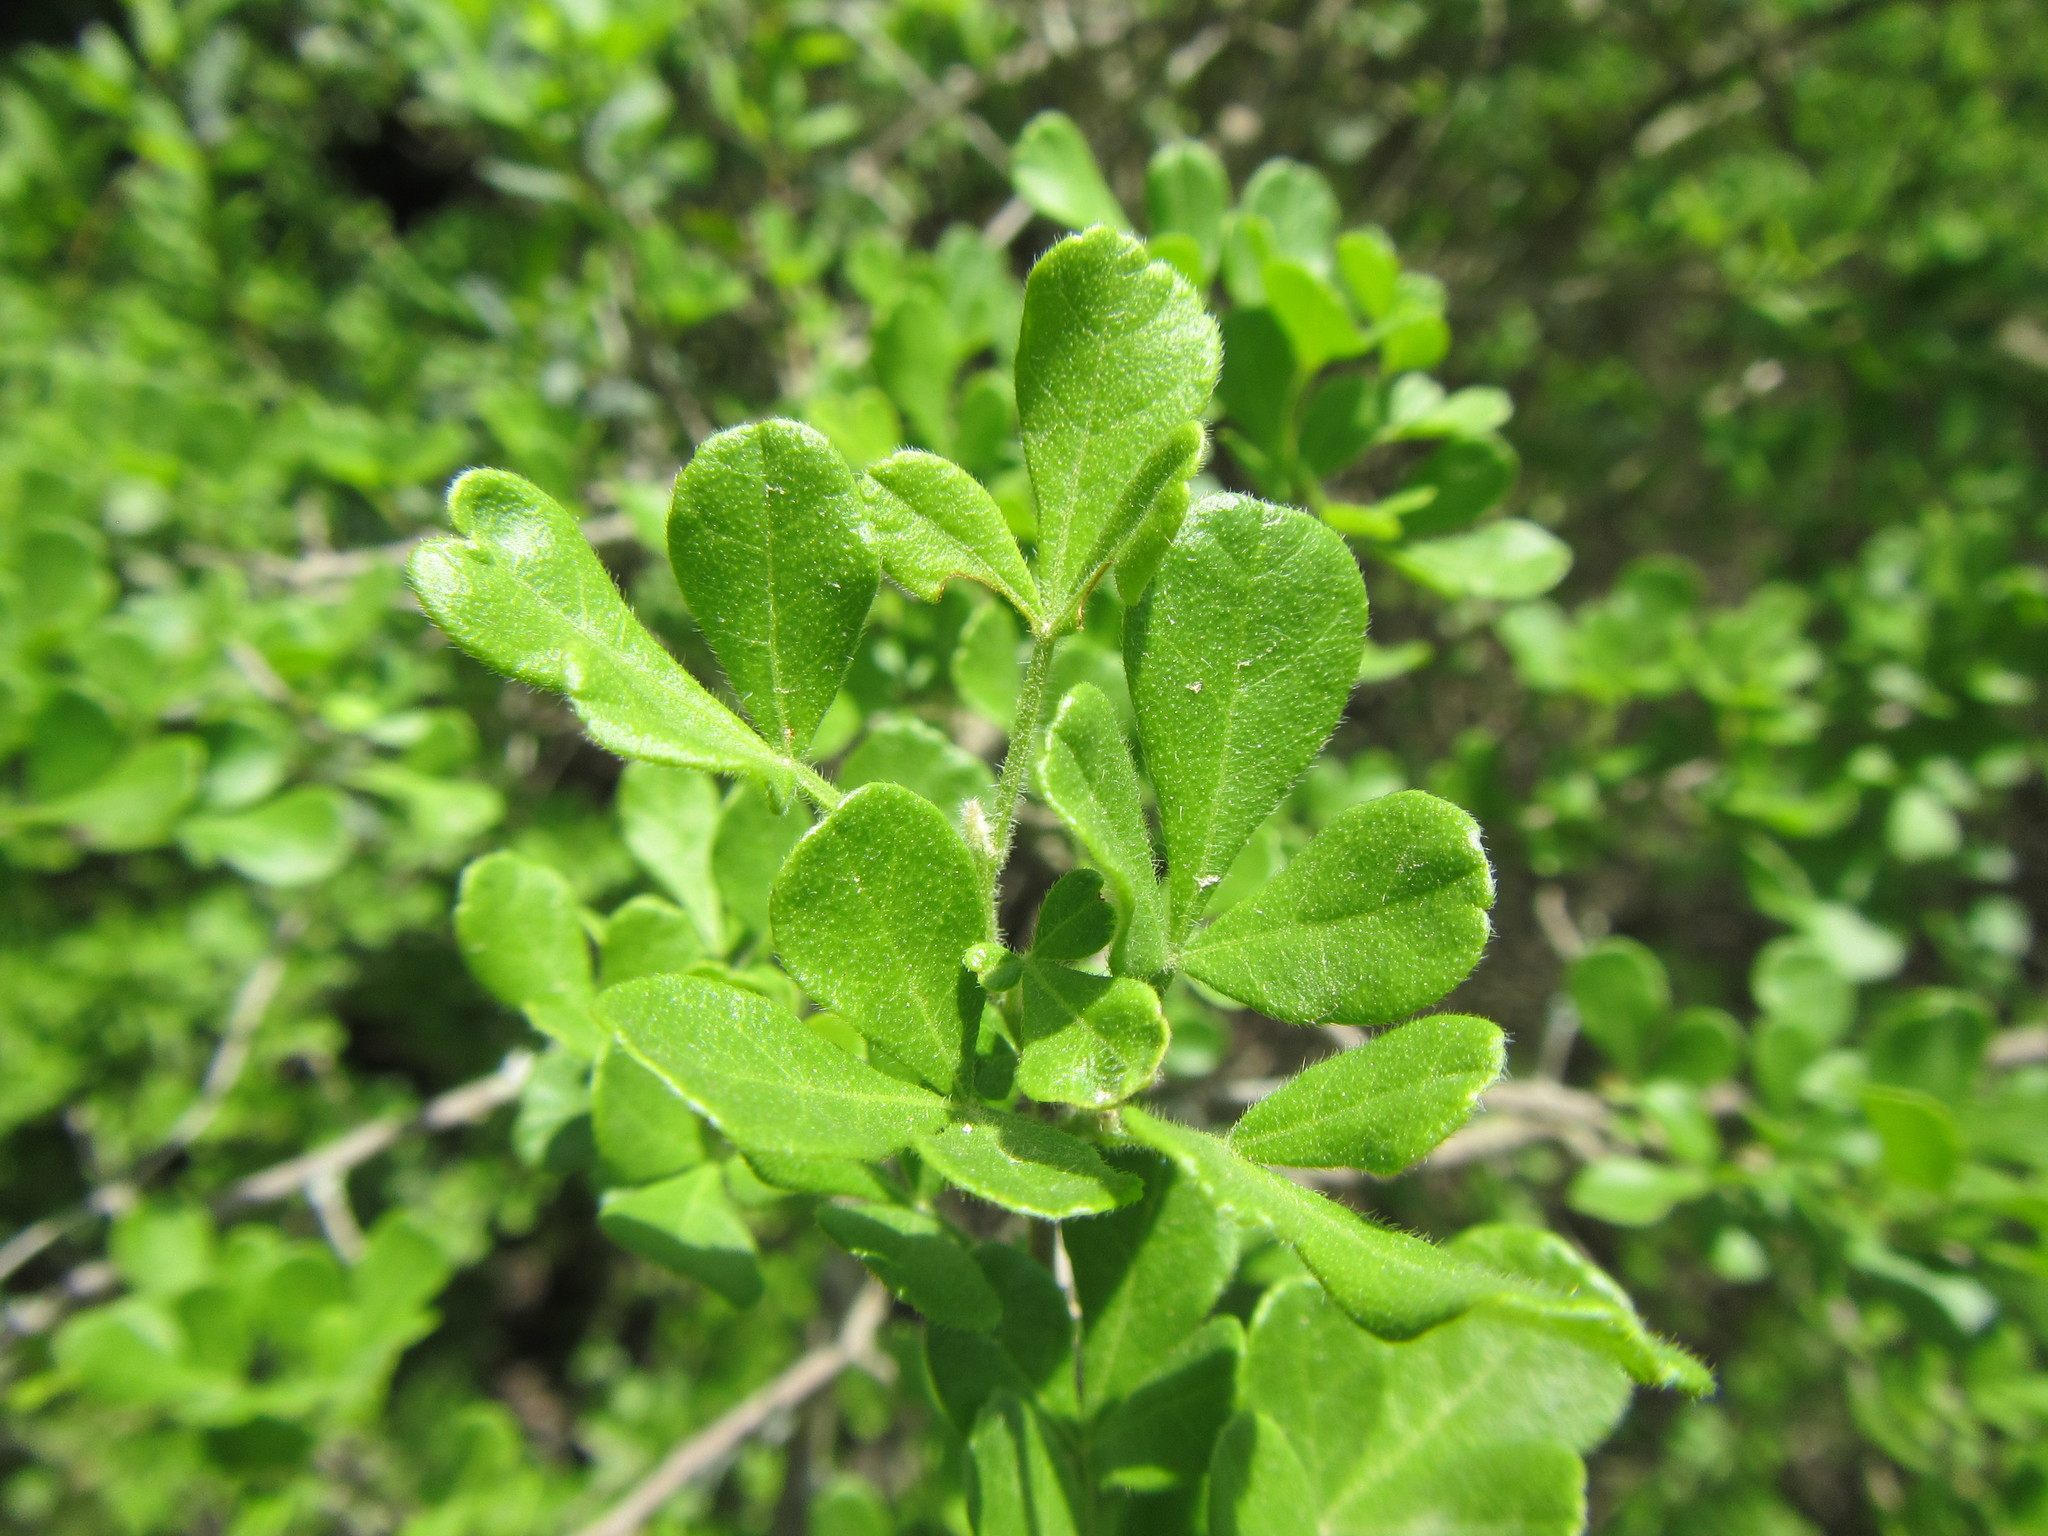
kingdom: Plantae
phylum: Tracheophyta
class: Magnoliopsida
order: Sapindales
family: Anacardiaceae
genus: Searsia
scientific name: Searsia refracta
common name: Thorny crow-berry
